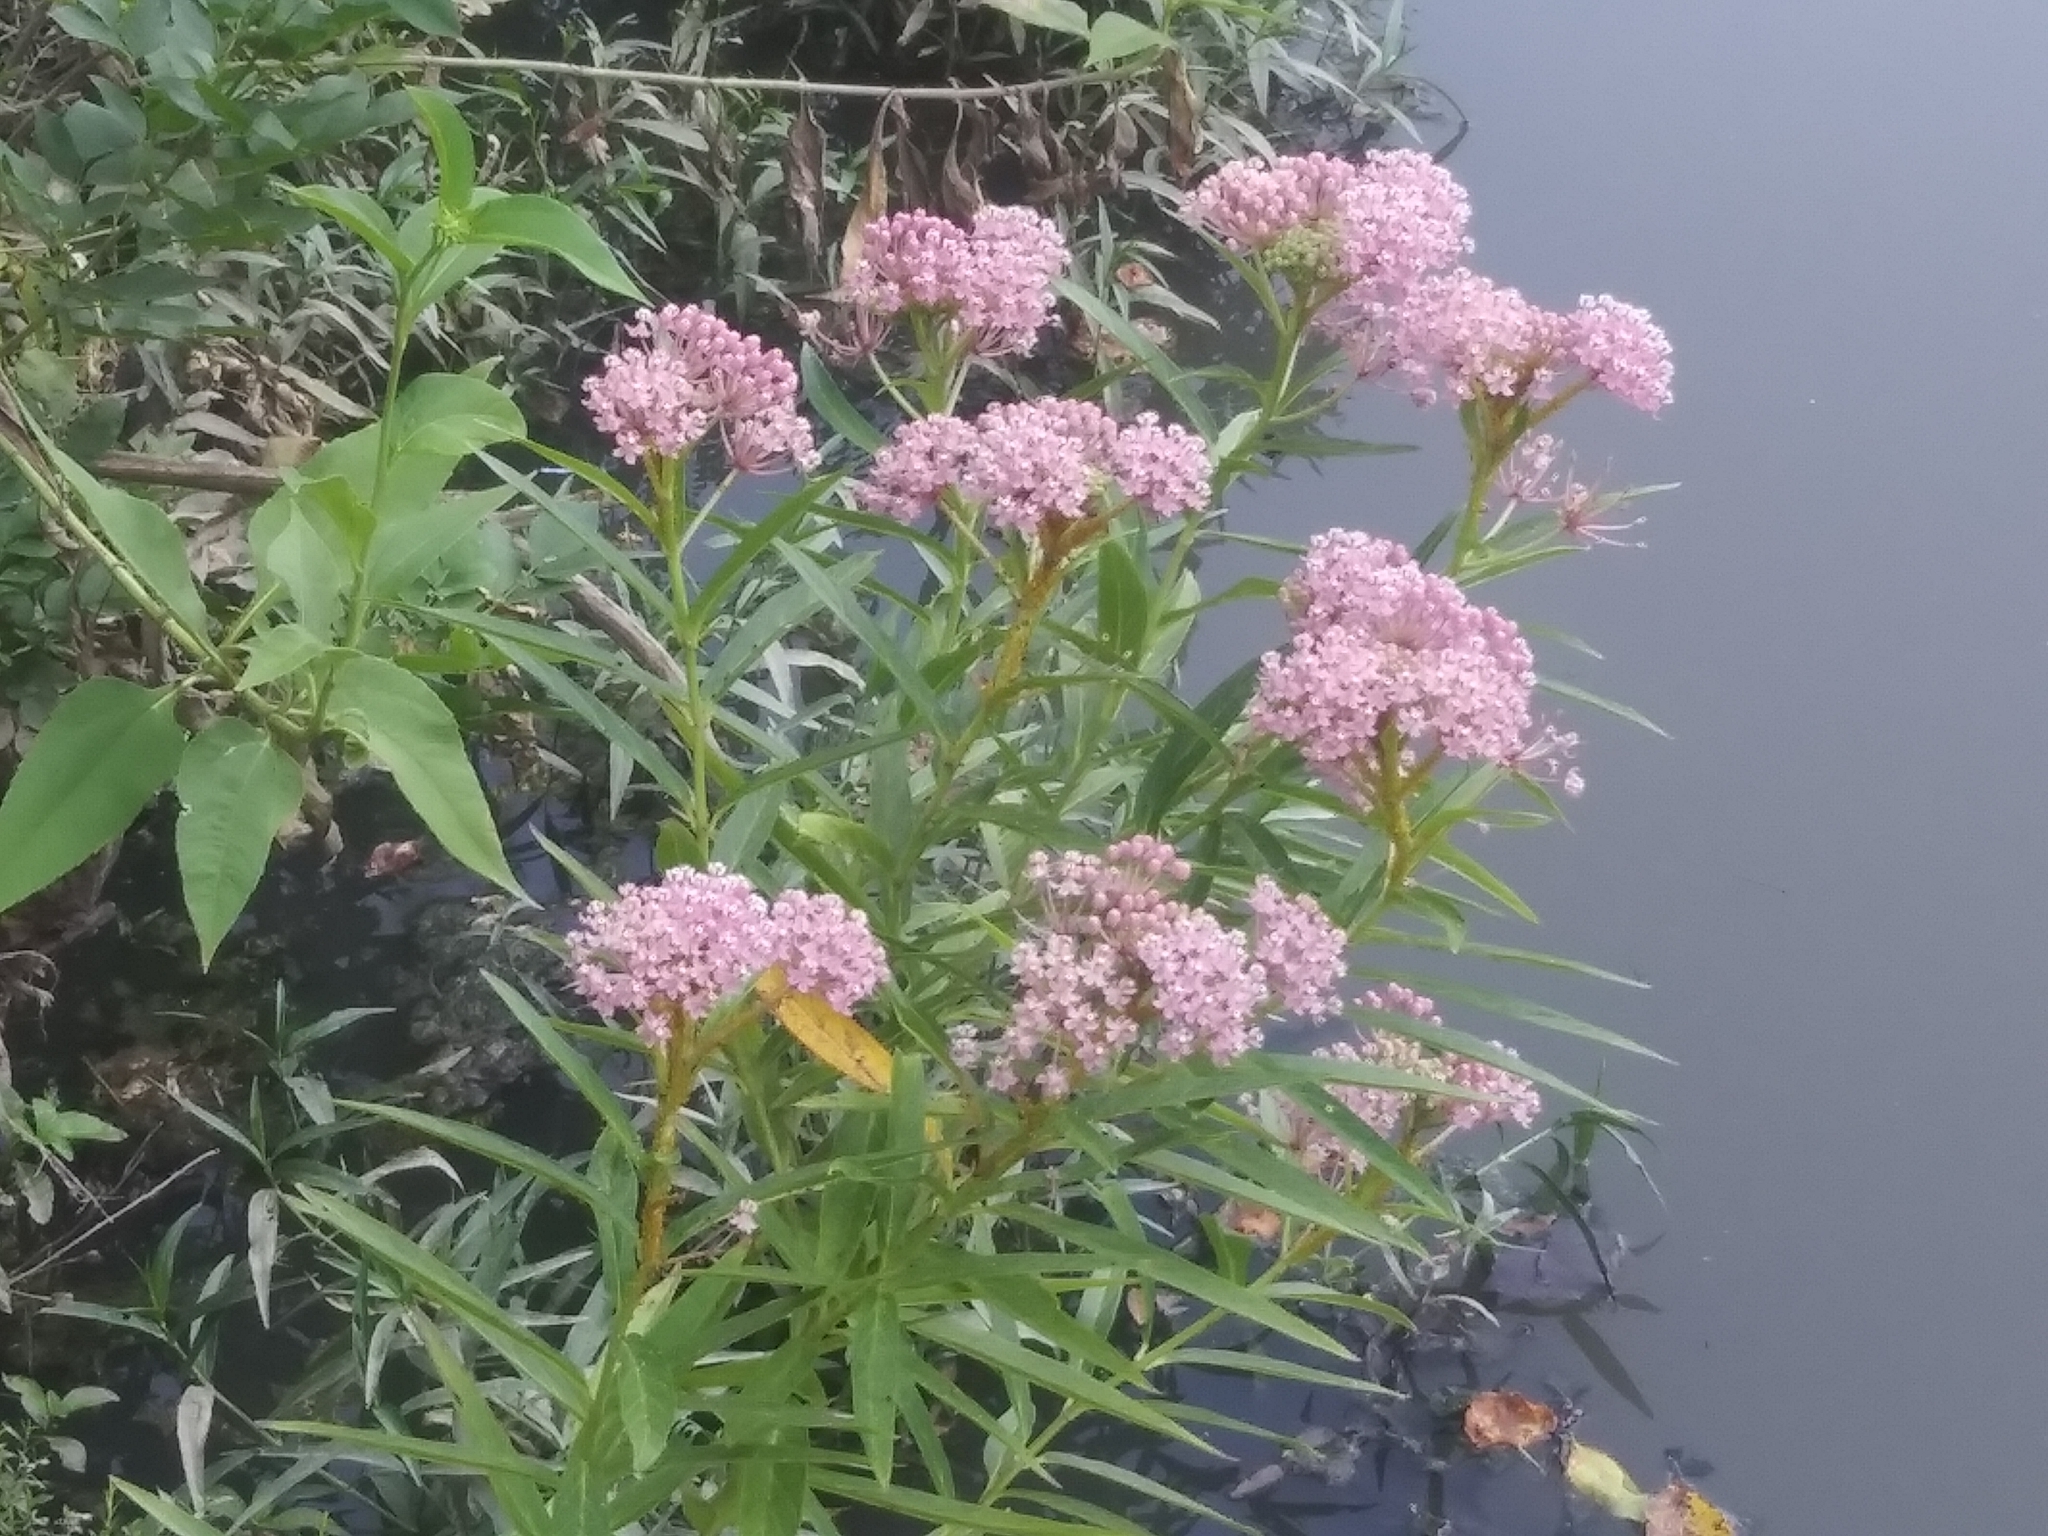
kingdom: Plantae
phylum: Tracheophyta
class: Magnoliopsida
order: Gentianales
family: Apocynaceae
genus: Asclepias
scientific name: Asclepias incarnata
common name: Swamp milkweed
